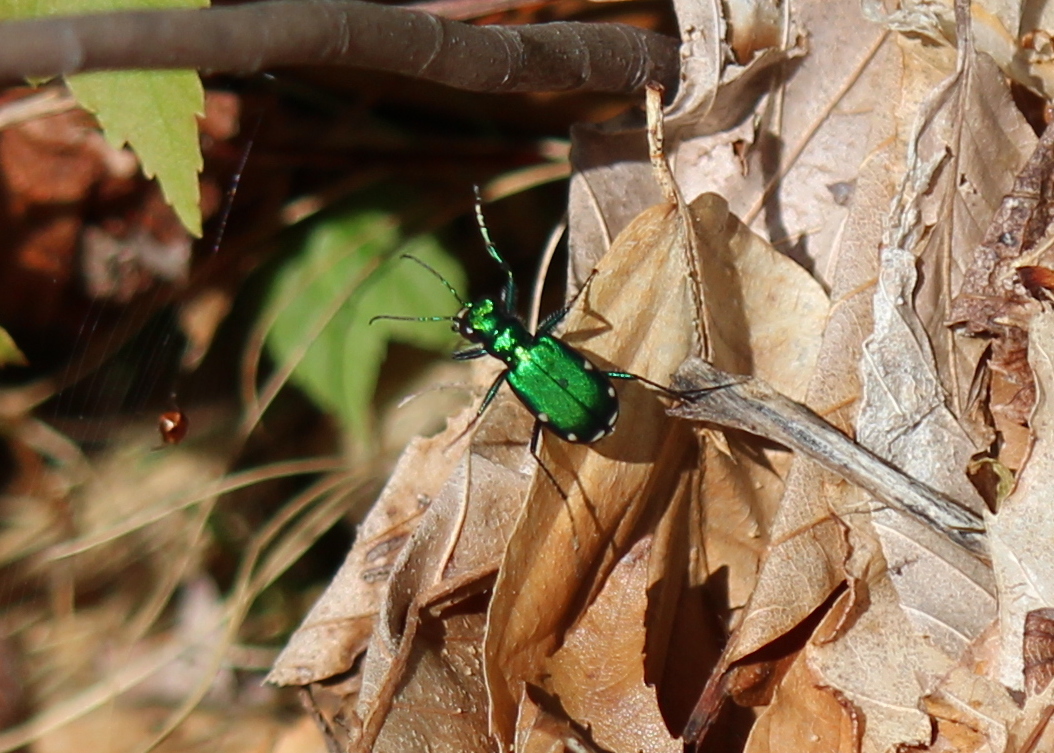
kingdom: Animalia
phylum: Arthropoda
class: Insecta
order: Coleoptera
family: Carabidae
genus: Cicindela
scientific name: Cicindela sexguttata
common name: Six-spotted tiger beetle
